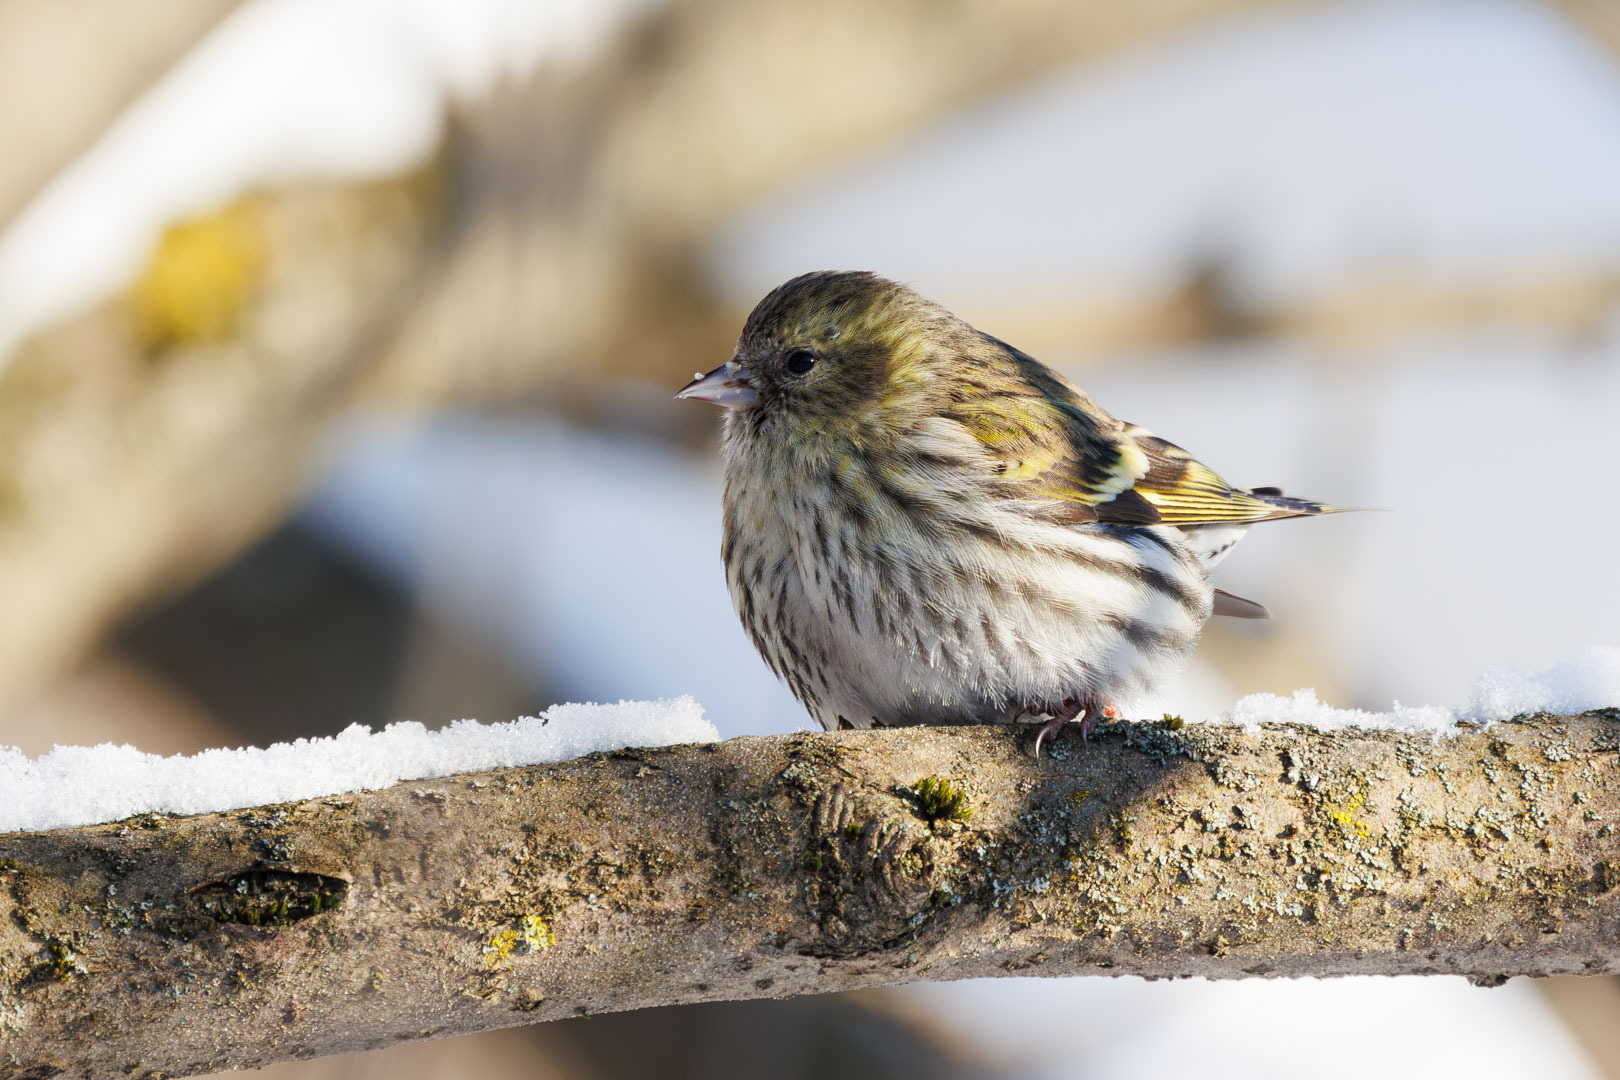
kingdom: Animalia
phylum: Chordata
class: Aves
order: Passeriformes
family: Fringillidae
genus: Spinus
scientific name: Spinus spinus
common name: Eurasian siskin
